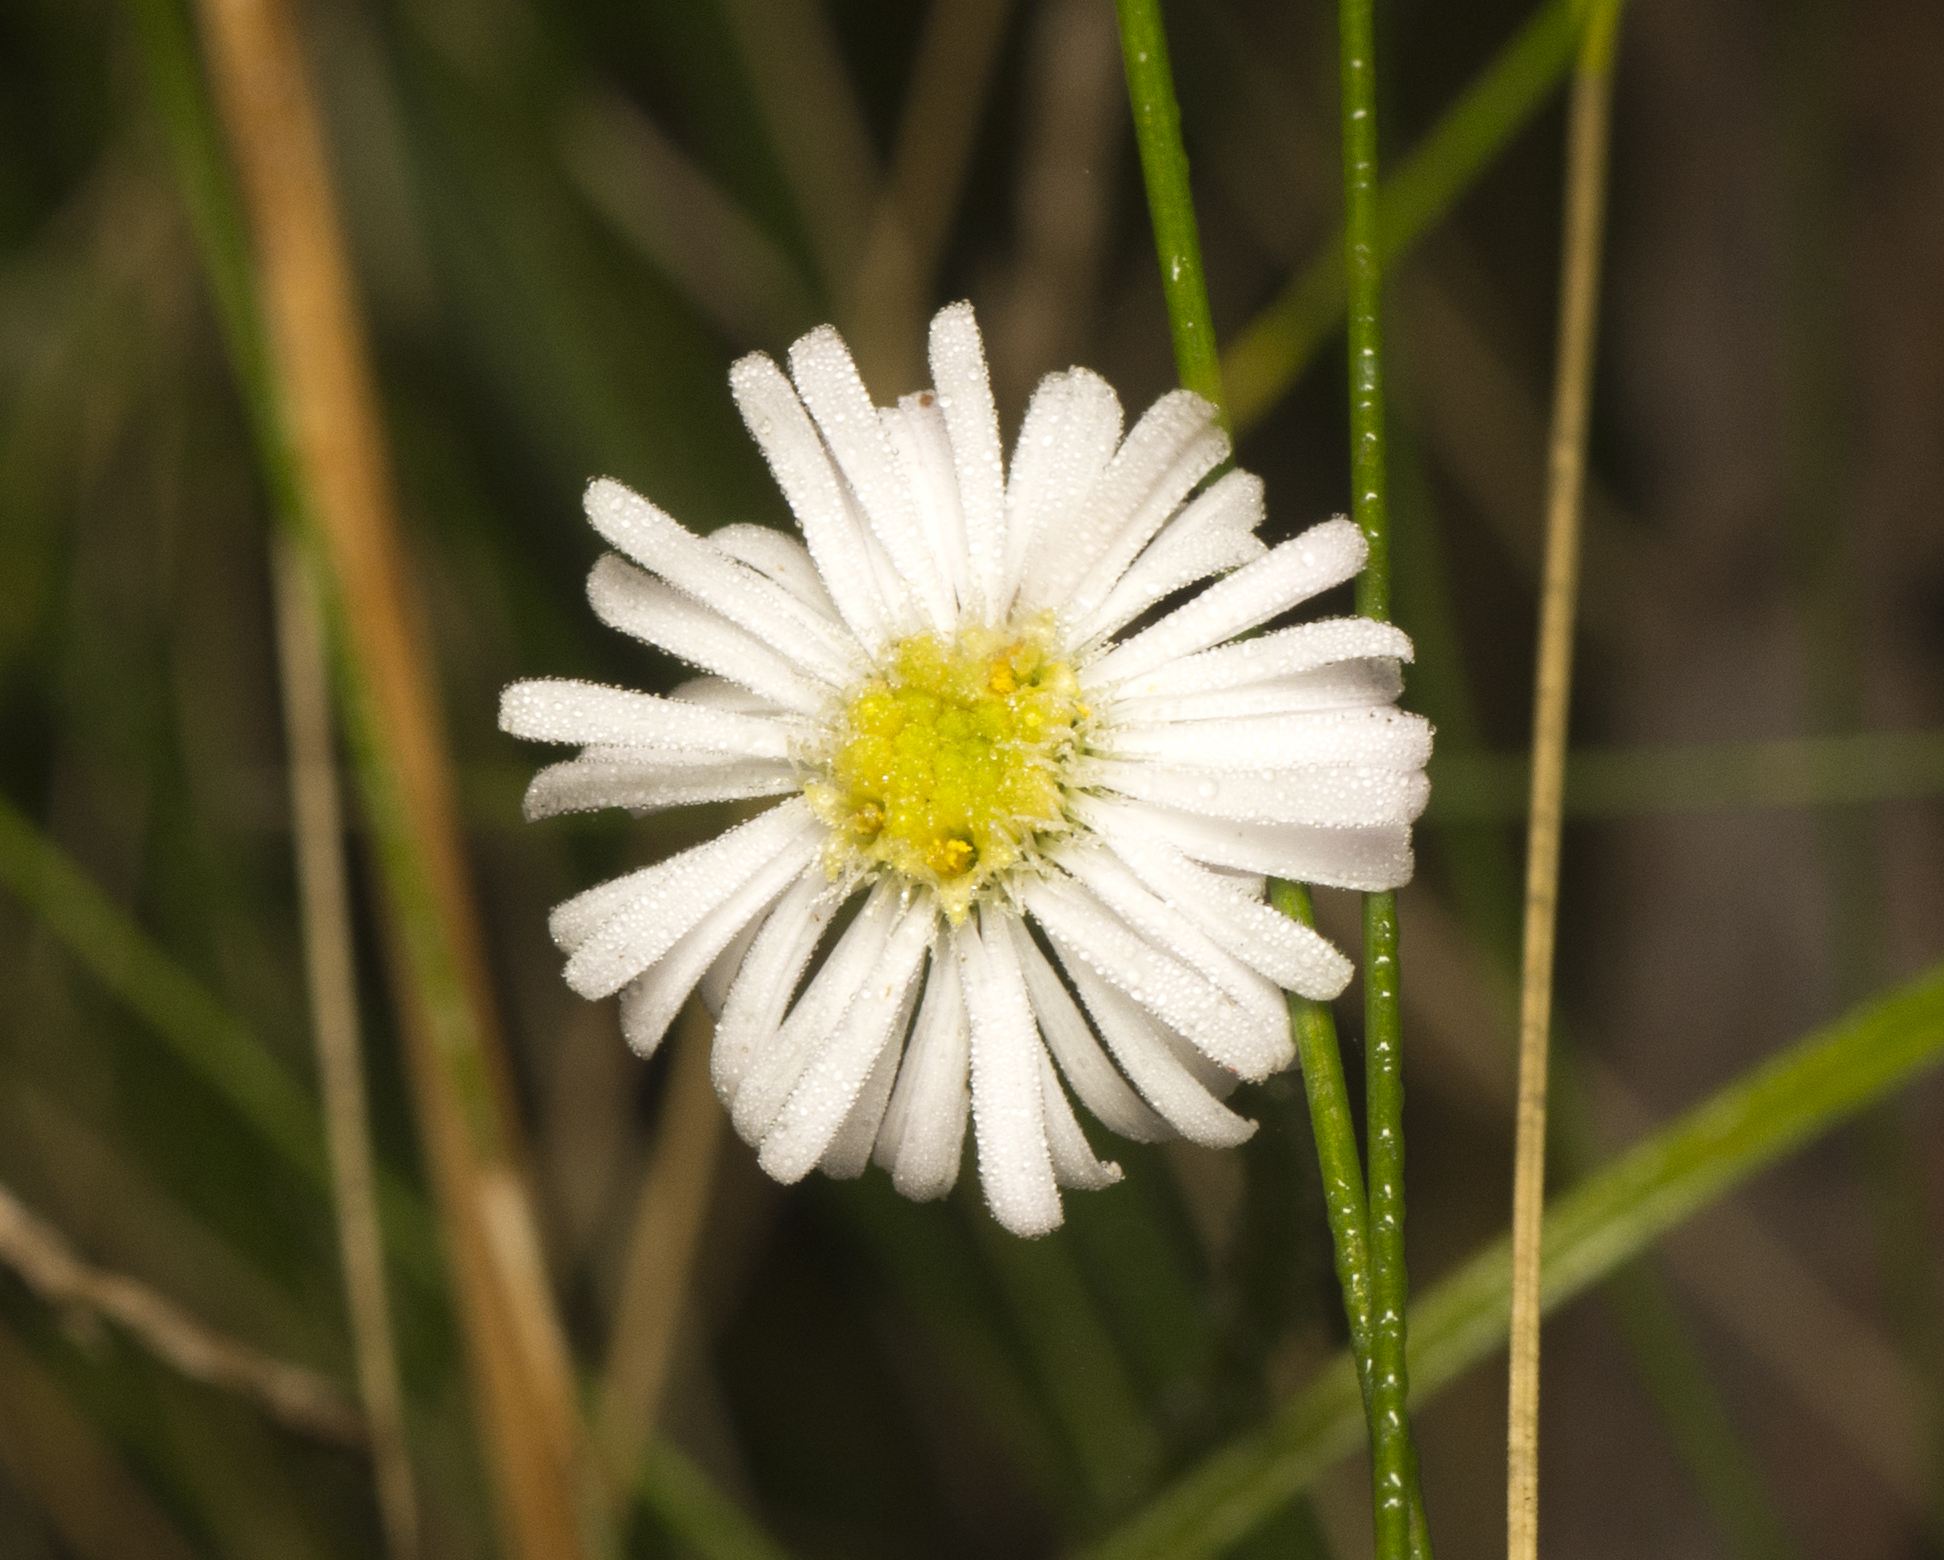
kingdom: Plantae
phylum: Tracheophyta
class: Magnoliopsida
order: Asterales
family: Asteraceae
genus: Lagenophora
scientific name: Lagenophora stipitata
